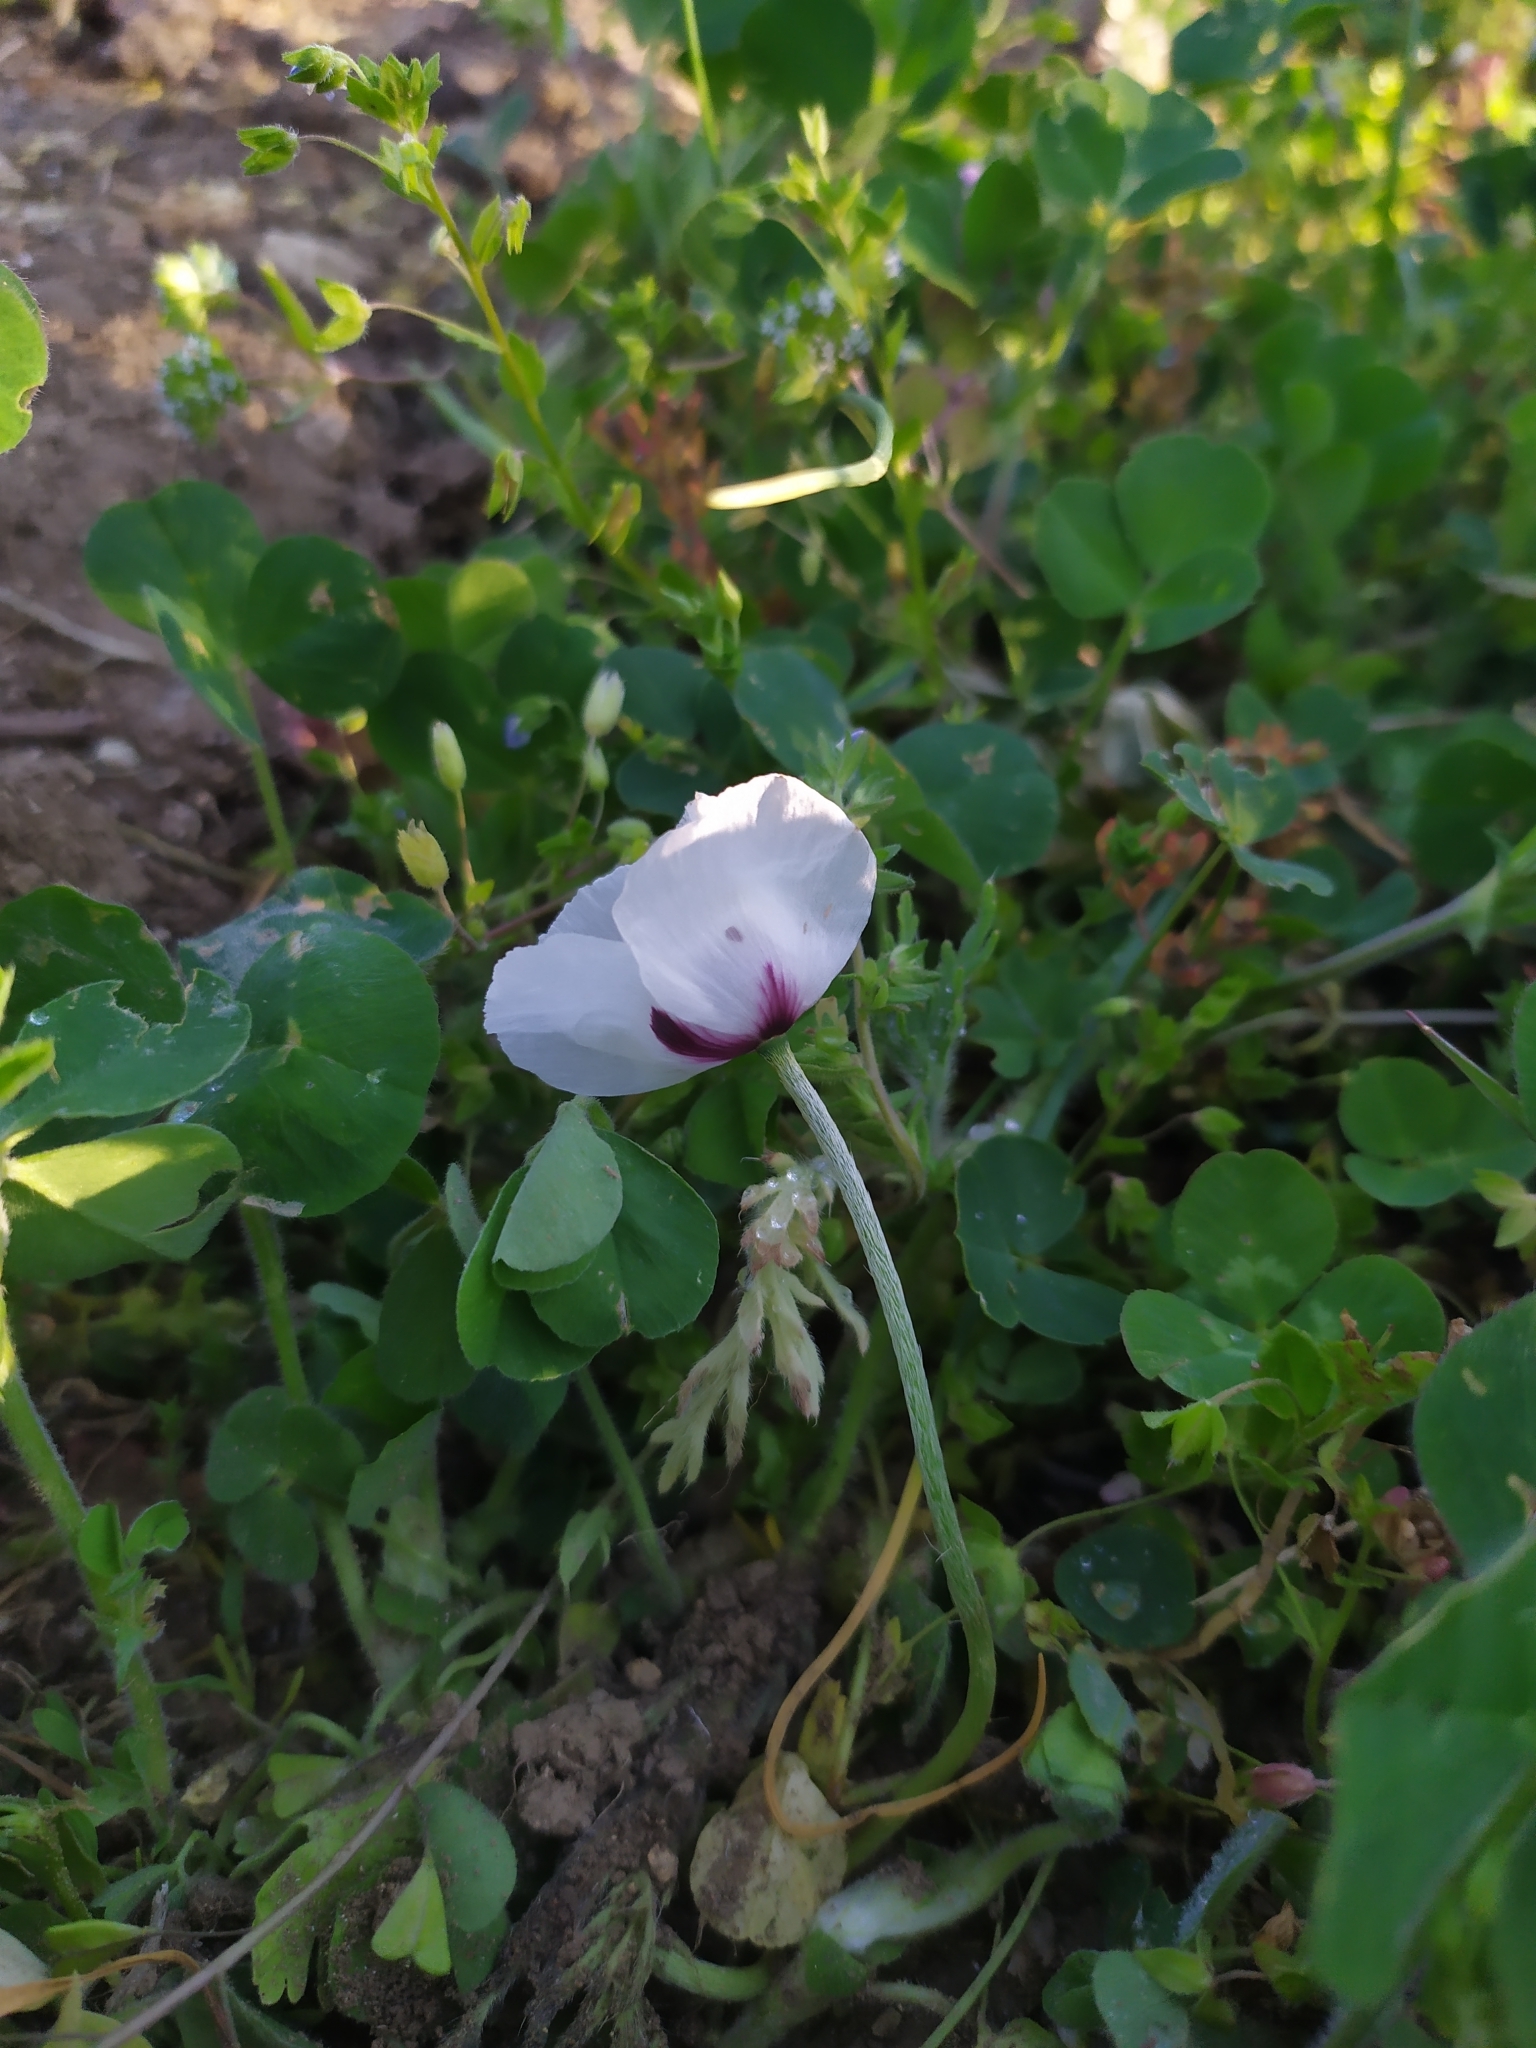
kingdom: Plantae
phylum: Tracheophyta
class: Magnoliopsida
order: Ranunculales
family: Papaveraceae
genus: Papaver
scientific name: Papaver dubium
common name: Long-headed poppy
